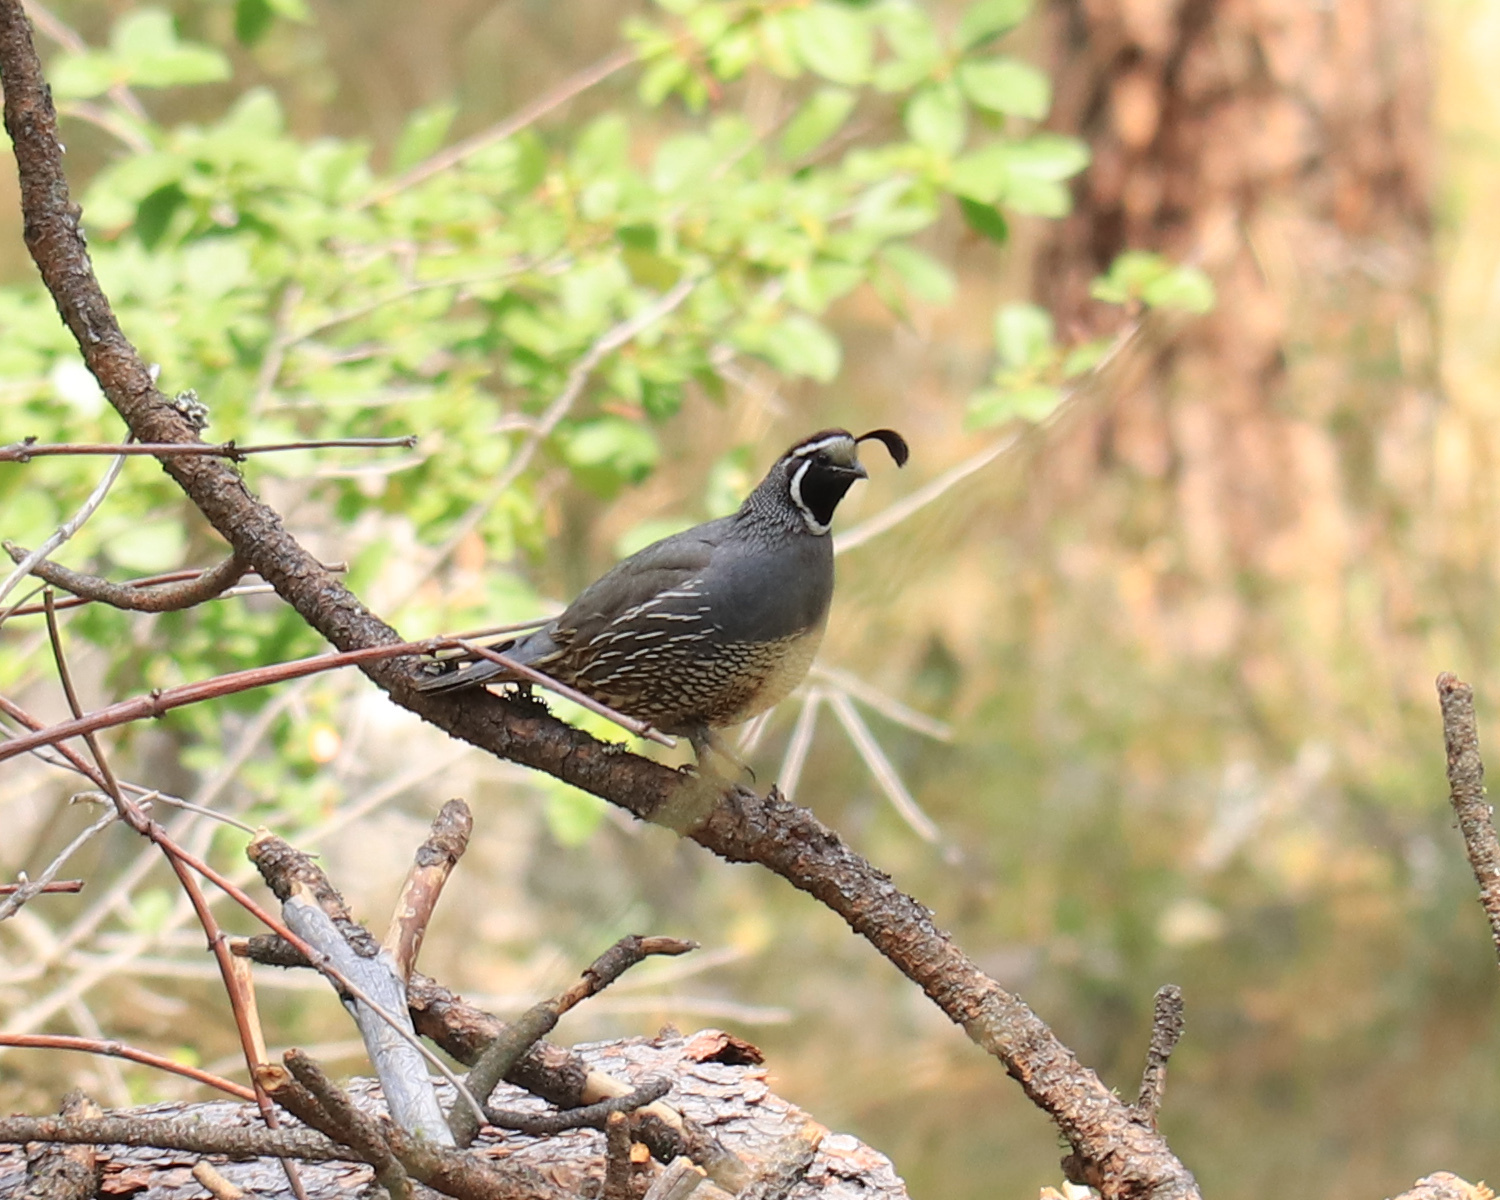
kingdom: Animalia
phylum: Chordata
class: Aves
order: Galliformes
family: Odontophoridae
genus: Callipepla
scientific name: Callipepla californica
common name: California quail
